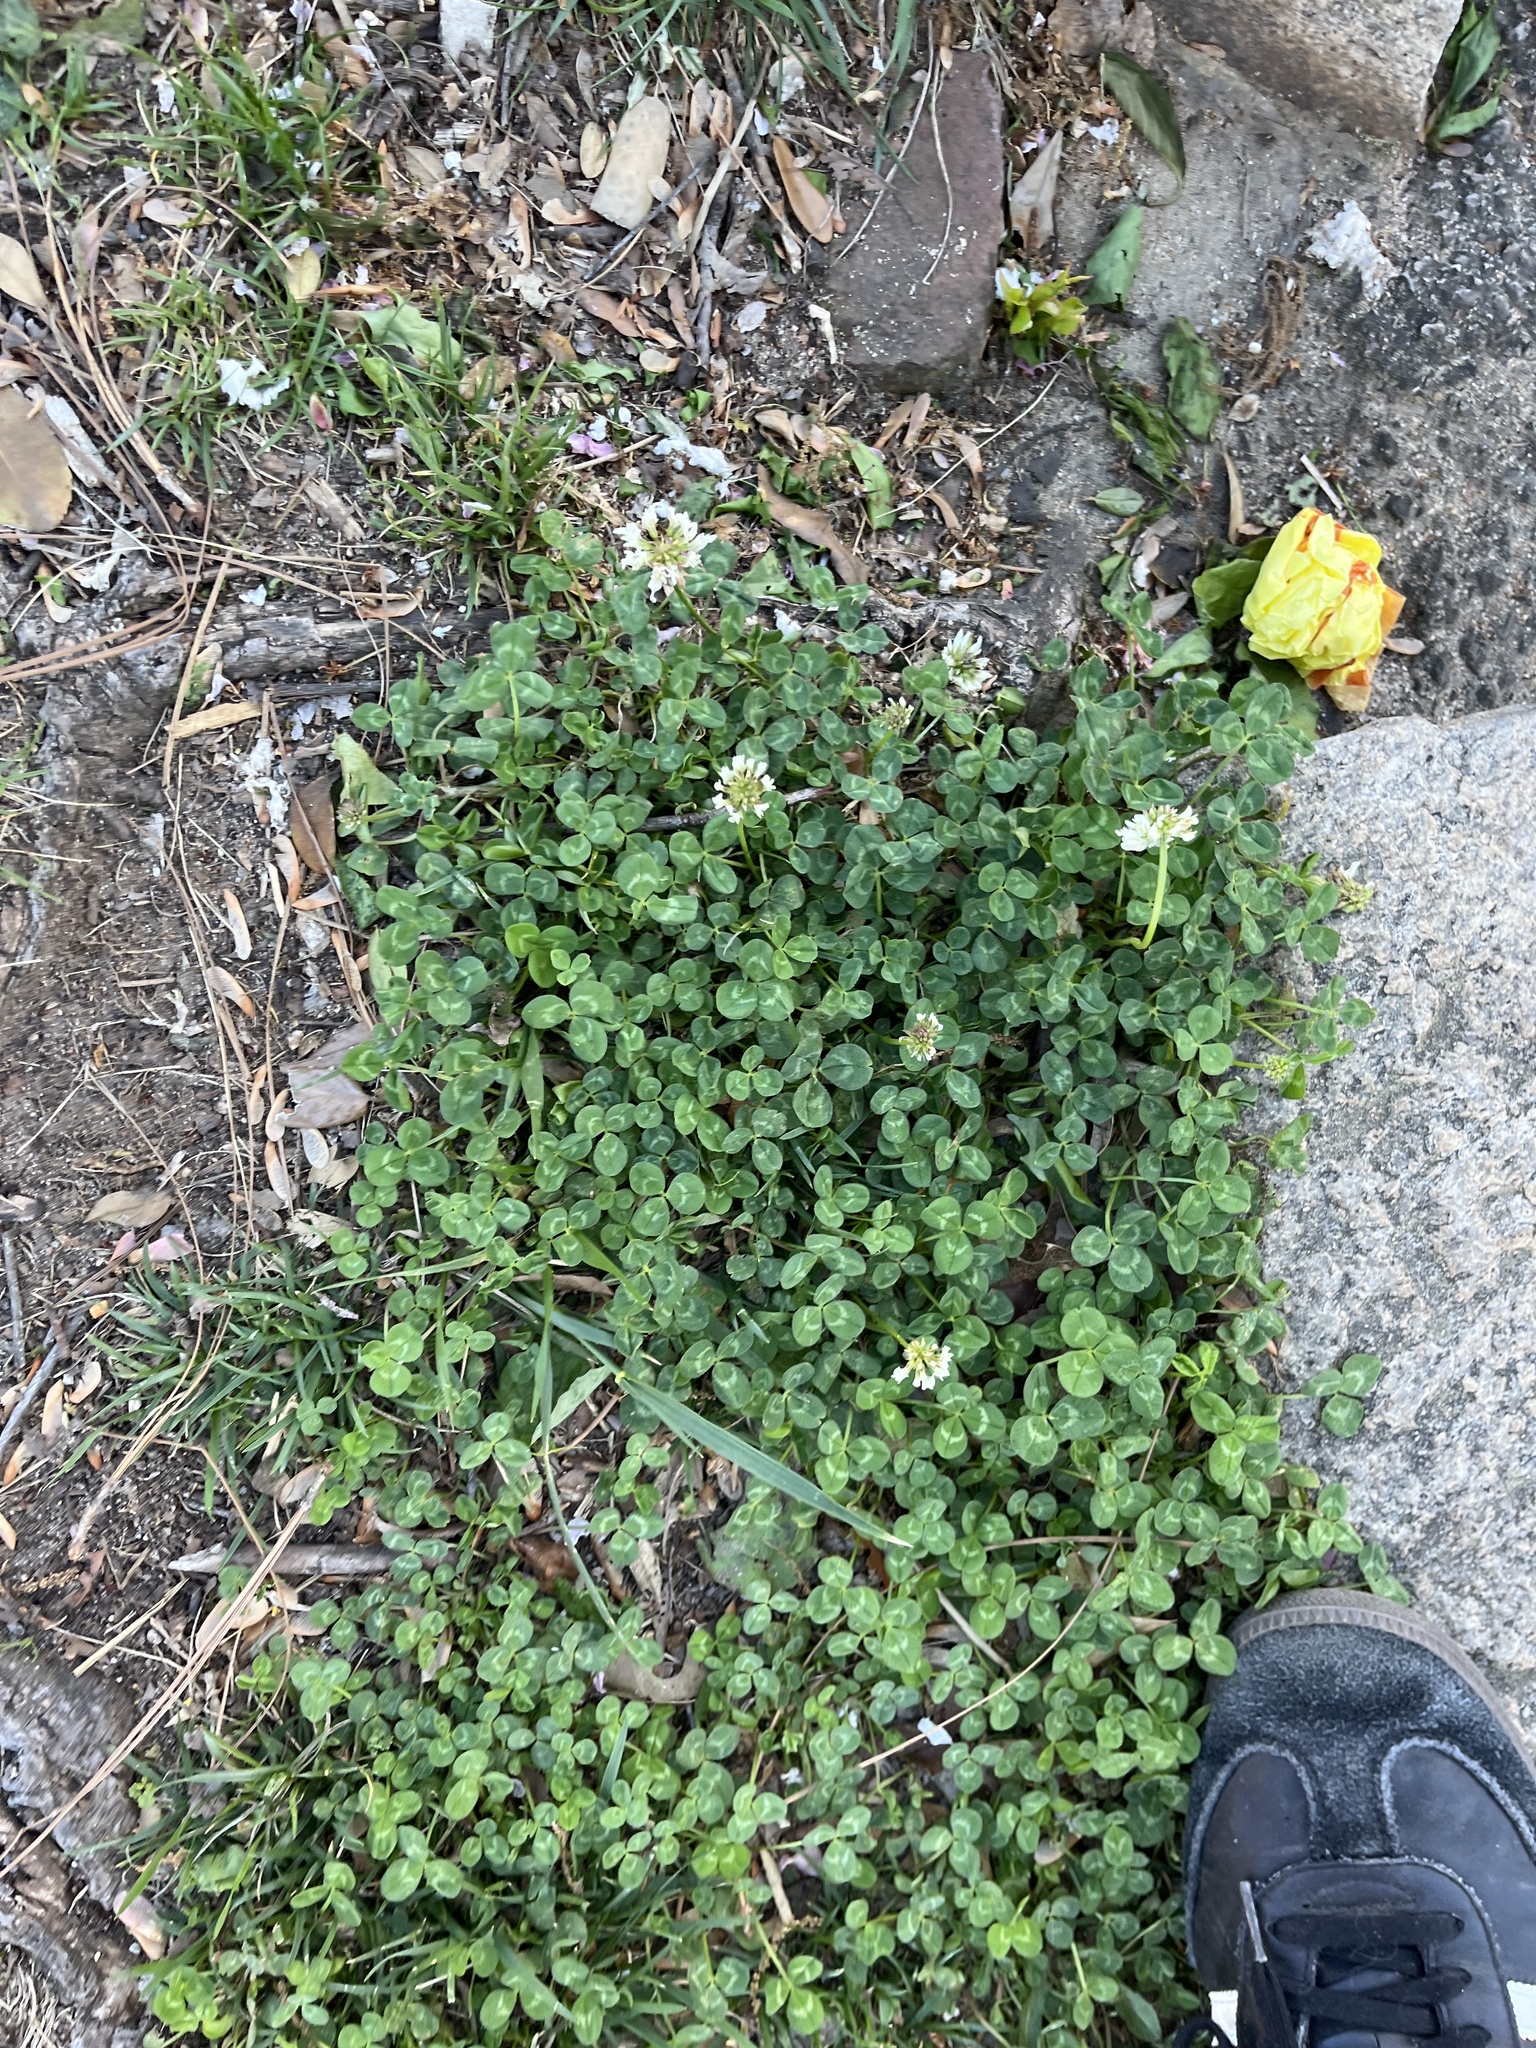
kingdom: Plantae
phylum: Tracheophyta
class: Magnoliopsida
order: Fabales
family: Fabaceae
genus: Trifolium
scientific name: Trifolium repens
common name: White clover
